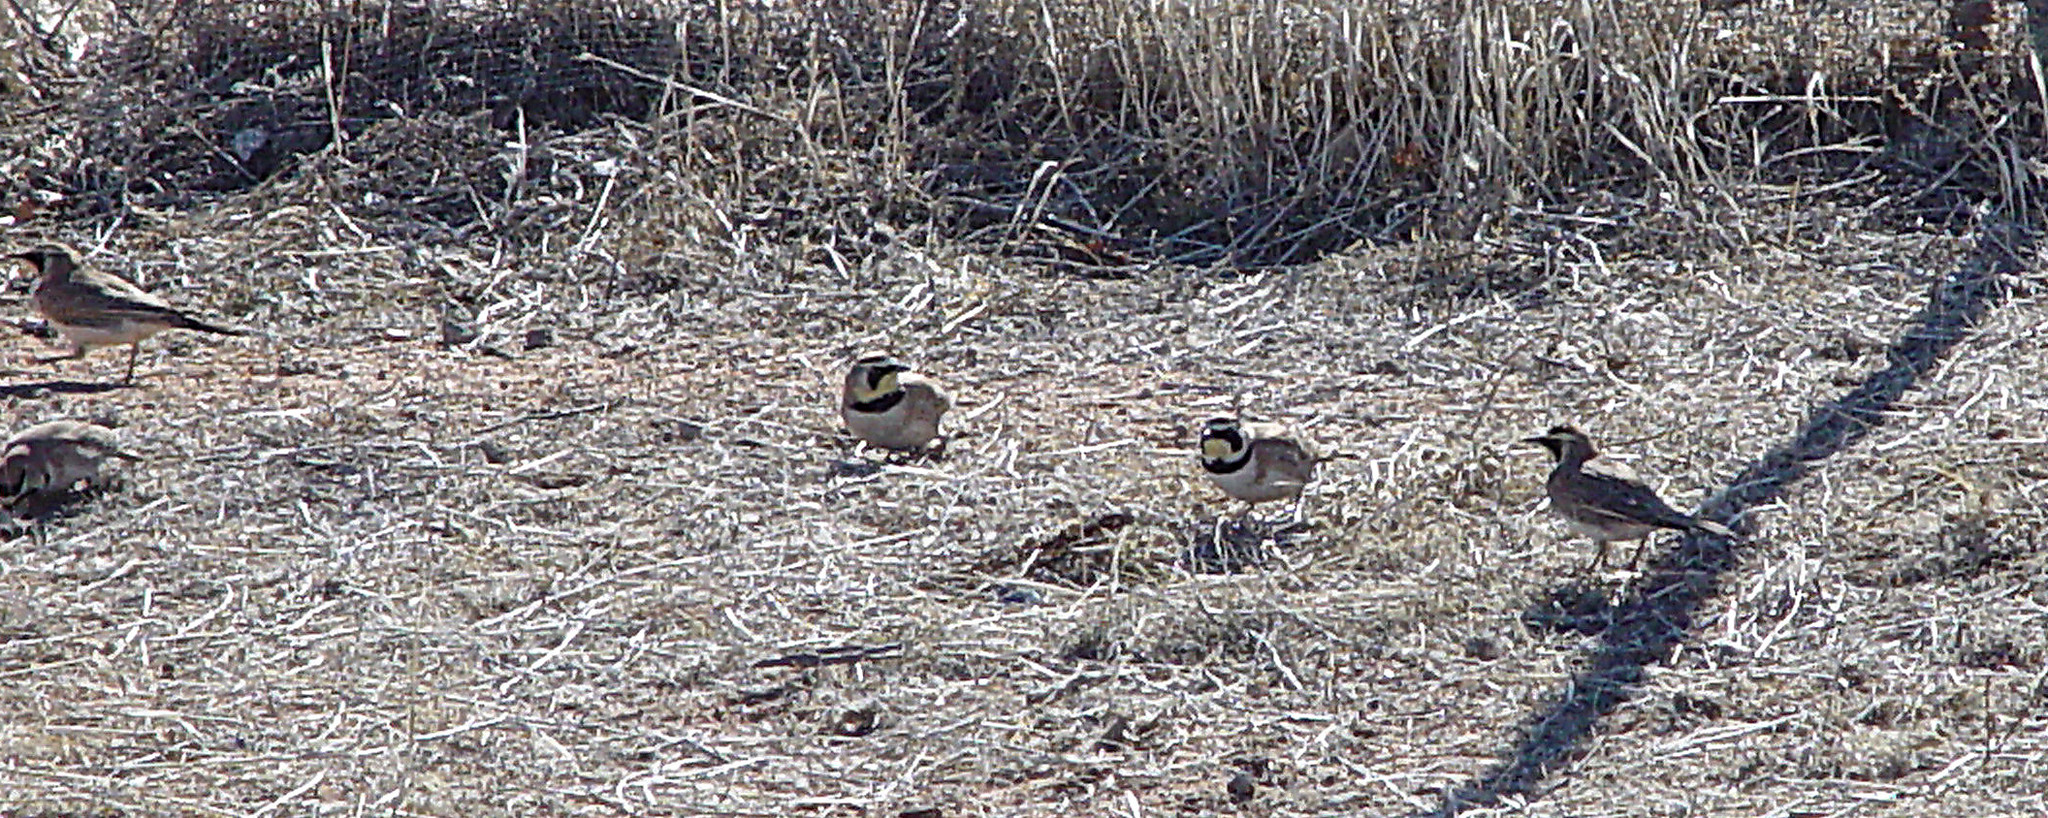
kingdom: Animalia
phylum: Chordata
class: Aves
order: Passeriformes
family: Alaudidae
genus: Eremophila
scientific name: Eremophila alpestris
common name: Horned lark
